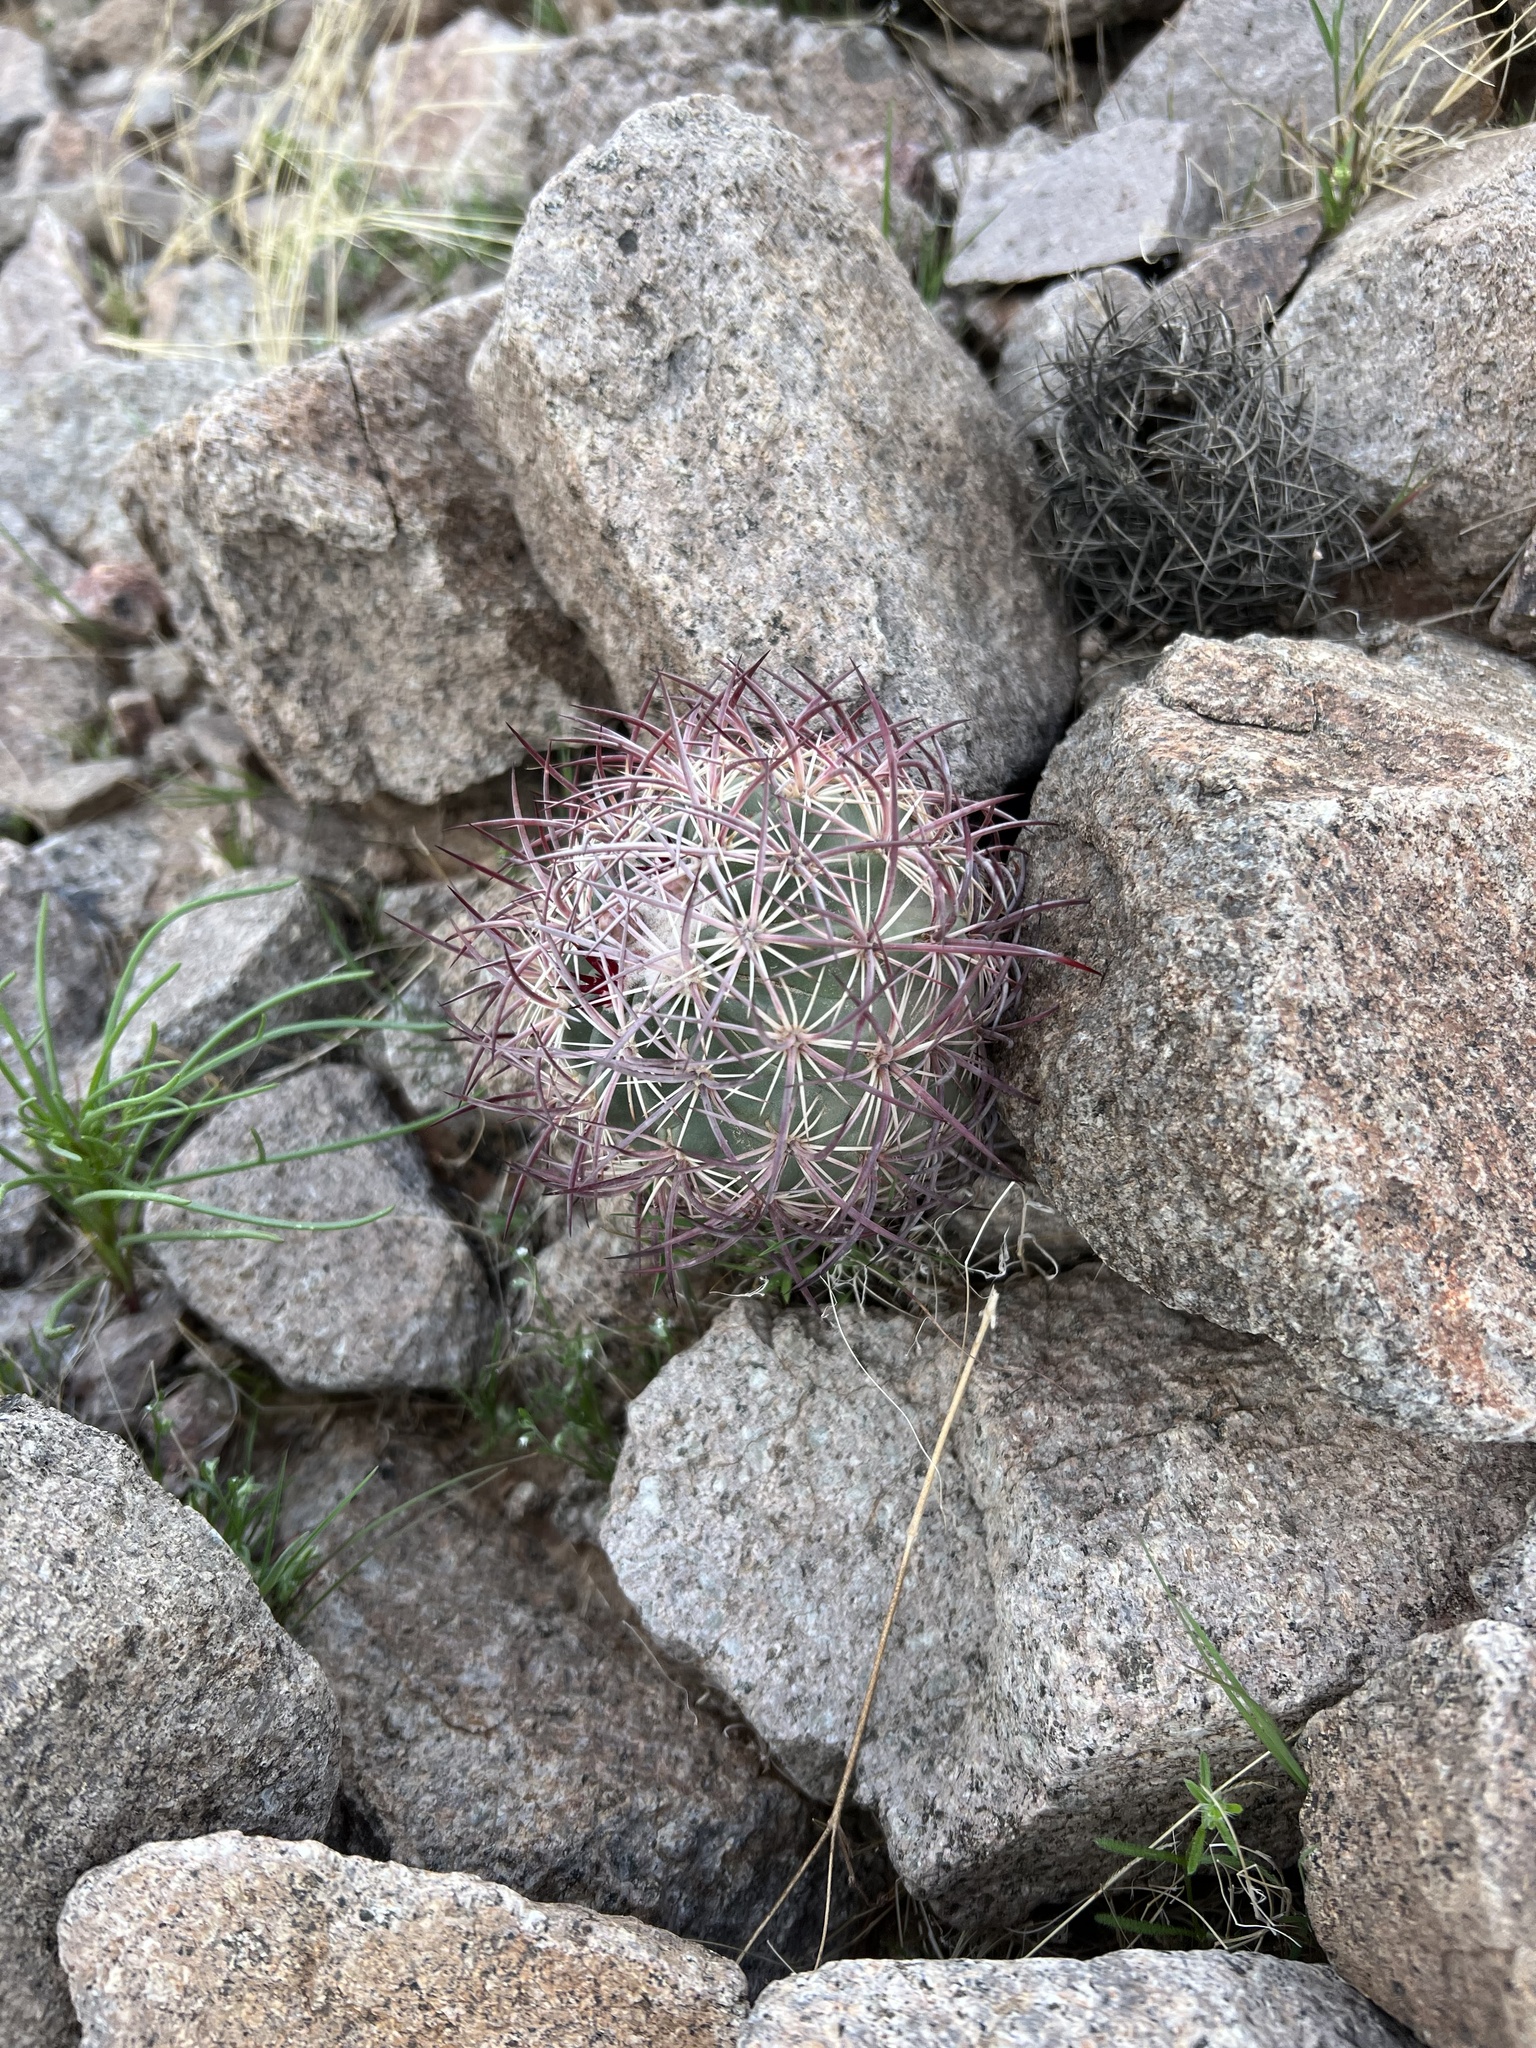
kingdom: Plantae
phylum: Tracheophyta
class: Magnoliopsida
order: Caryophyllales
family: Cactaceae
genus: Sclerocactus
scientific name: Sclerocactus johnsonii
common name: Eight-spine fishhook cactus
